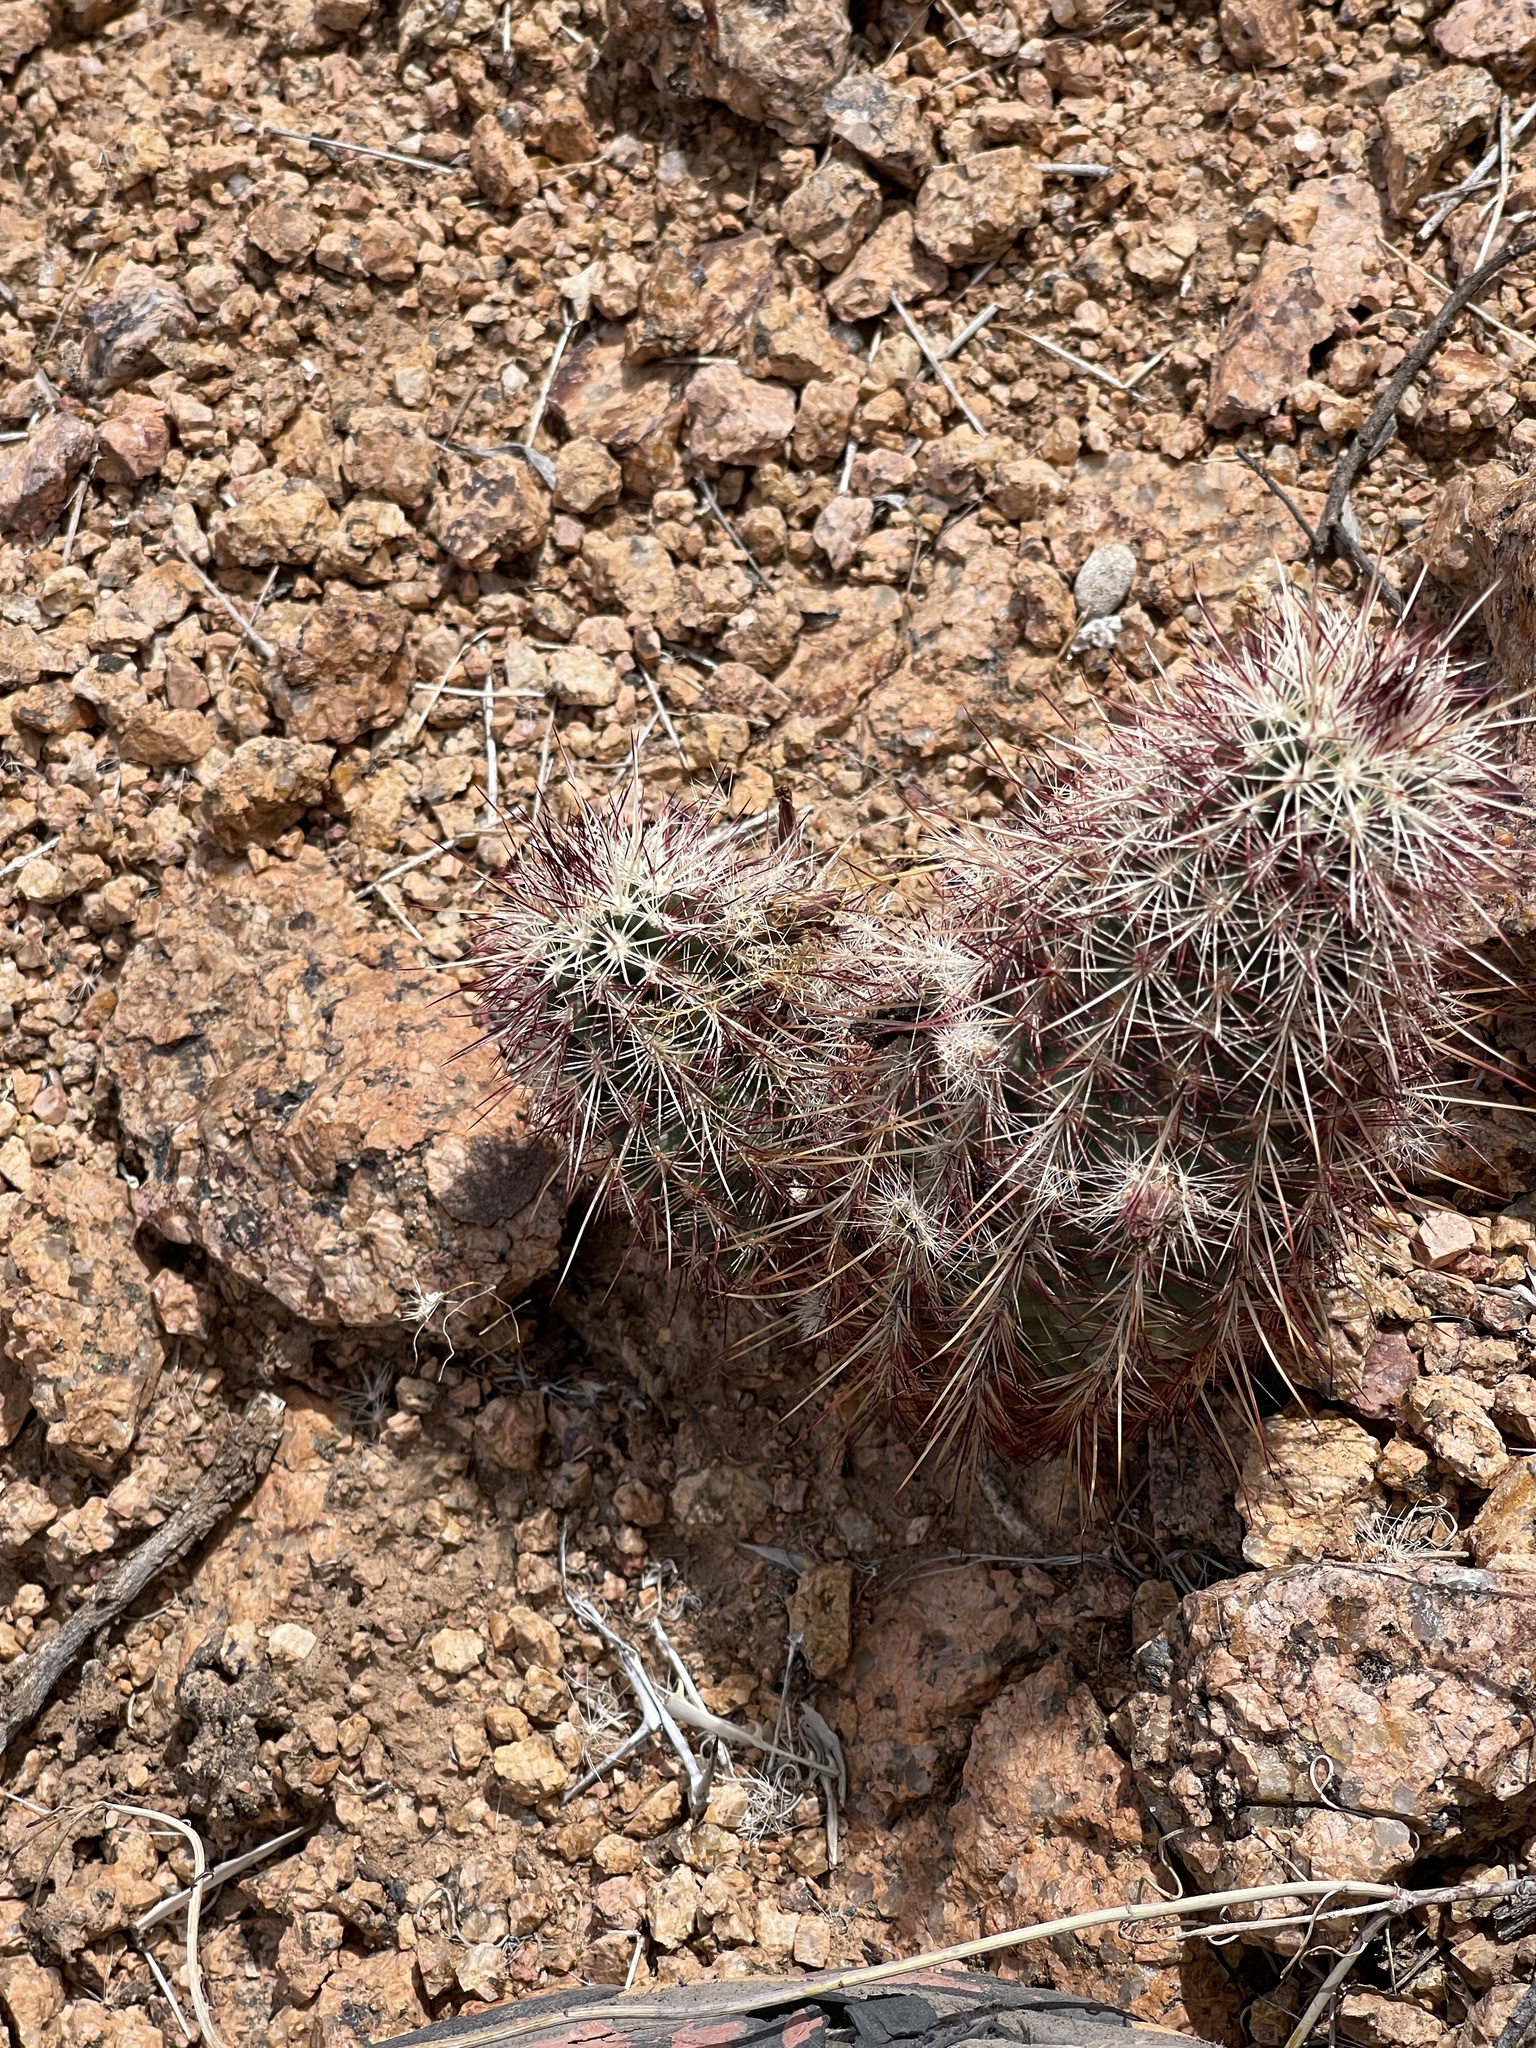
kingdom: Plantae
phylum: Tracheophyta
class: Magnoliopsida
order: Caryophyllales
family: Cactaceae
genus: Echinocereus
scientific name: Echinocereus viridiflorus
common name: Nylon hedgehog cactus
